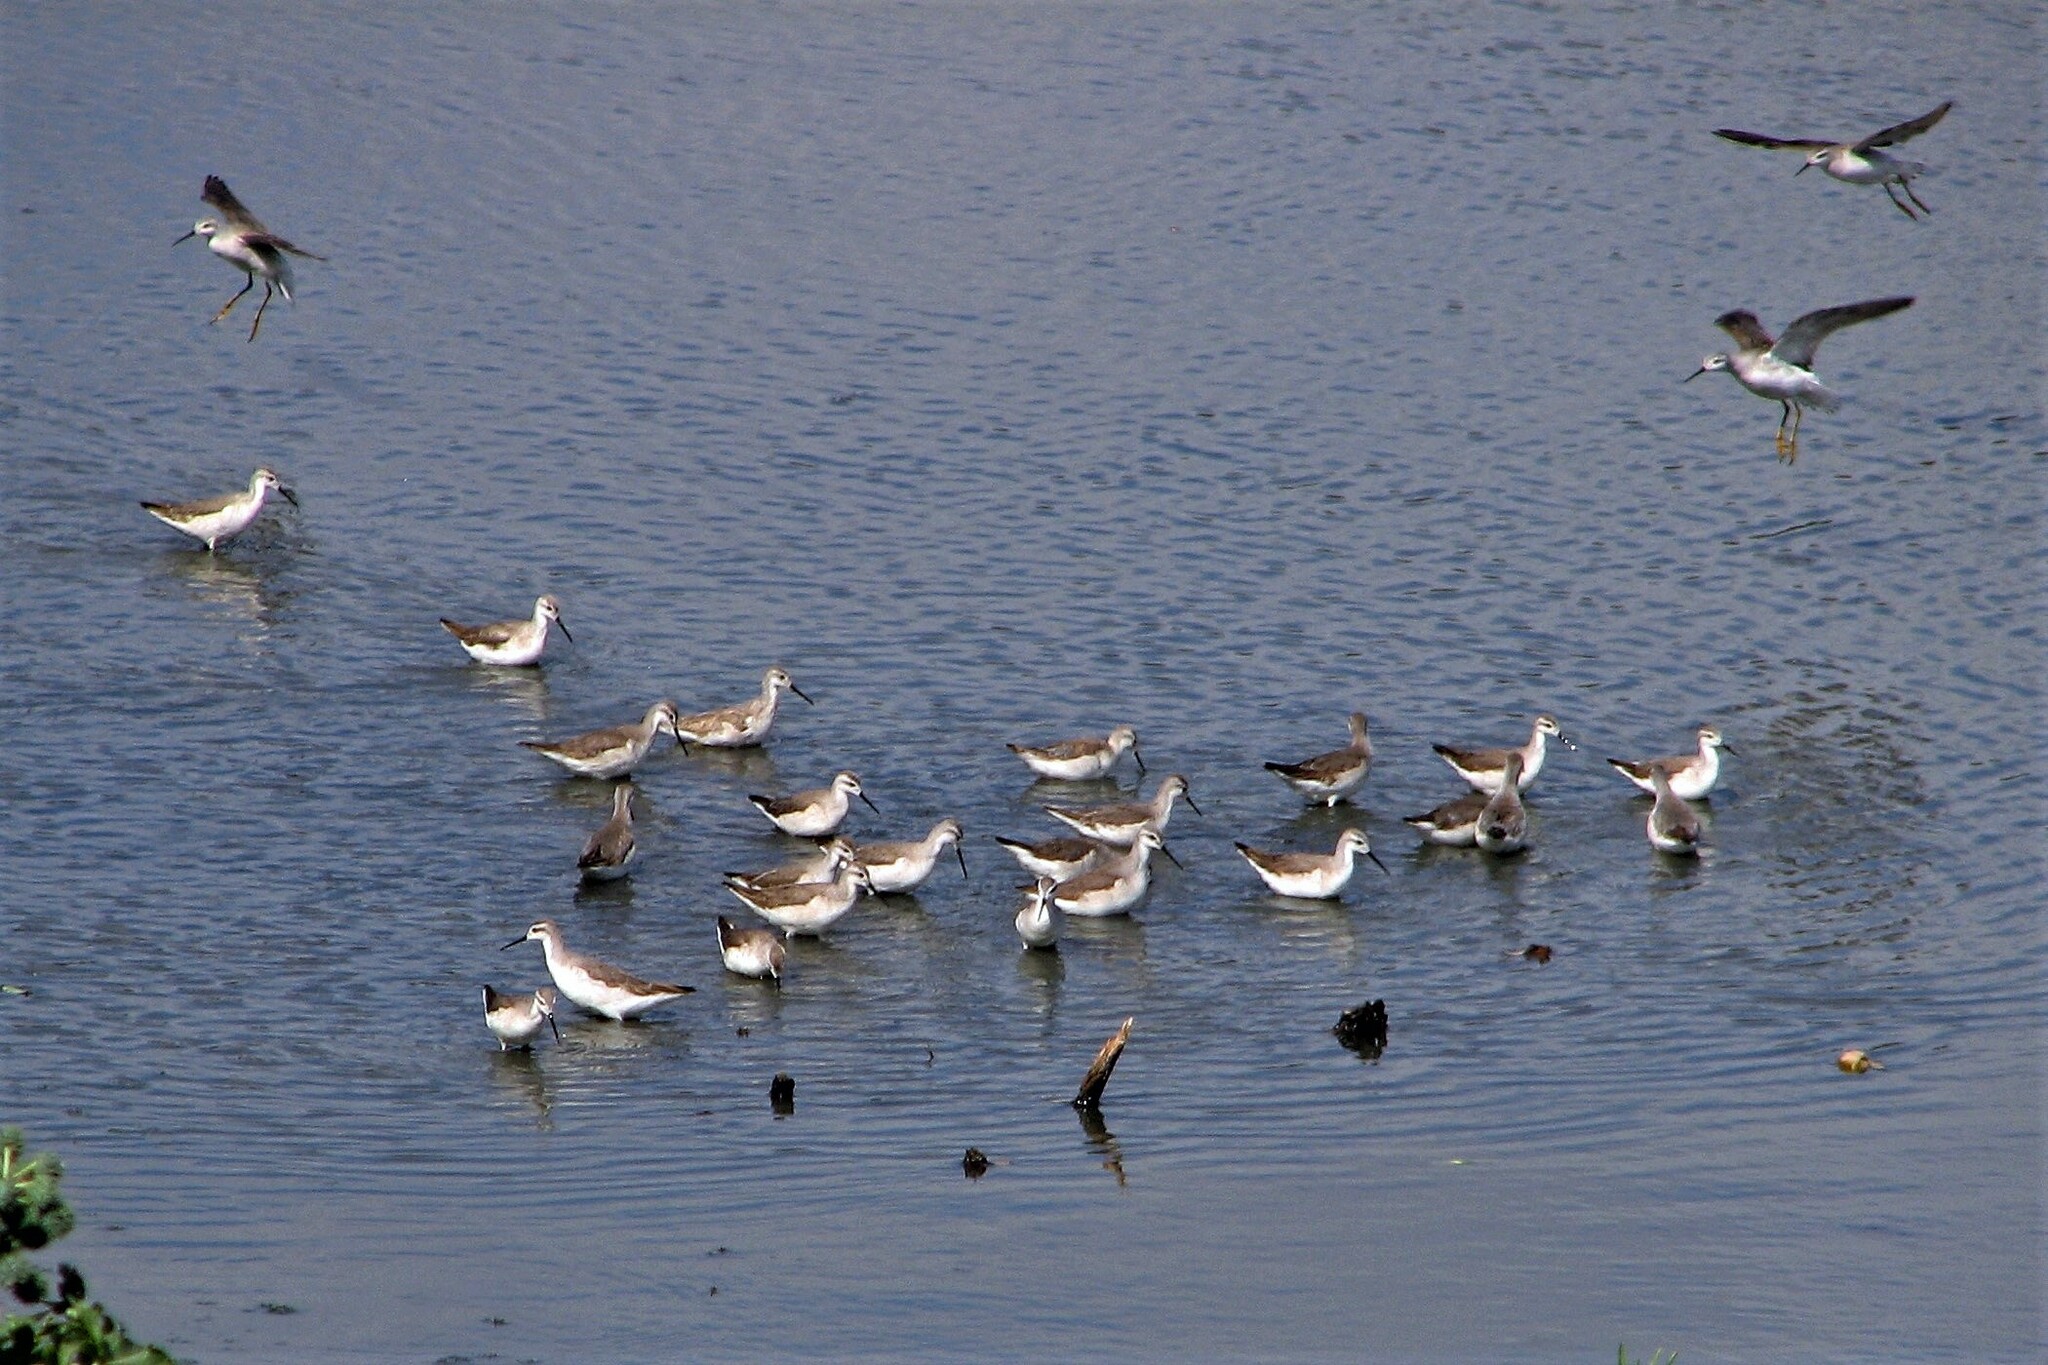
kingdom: Animalia
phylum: Chordata
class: Aves
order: Charadriiformes
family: Scolopacidae
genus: Phalaropus
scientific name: Phalaropus tricolor
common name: Wilson's phalarope
